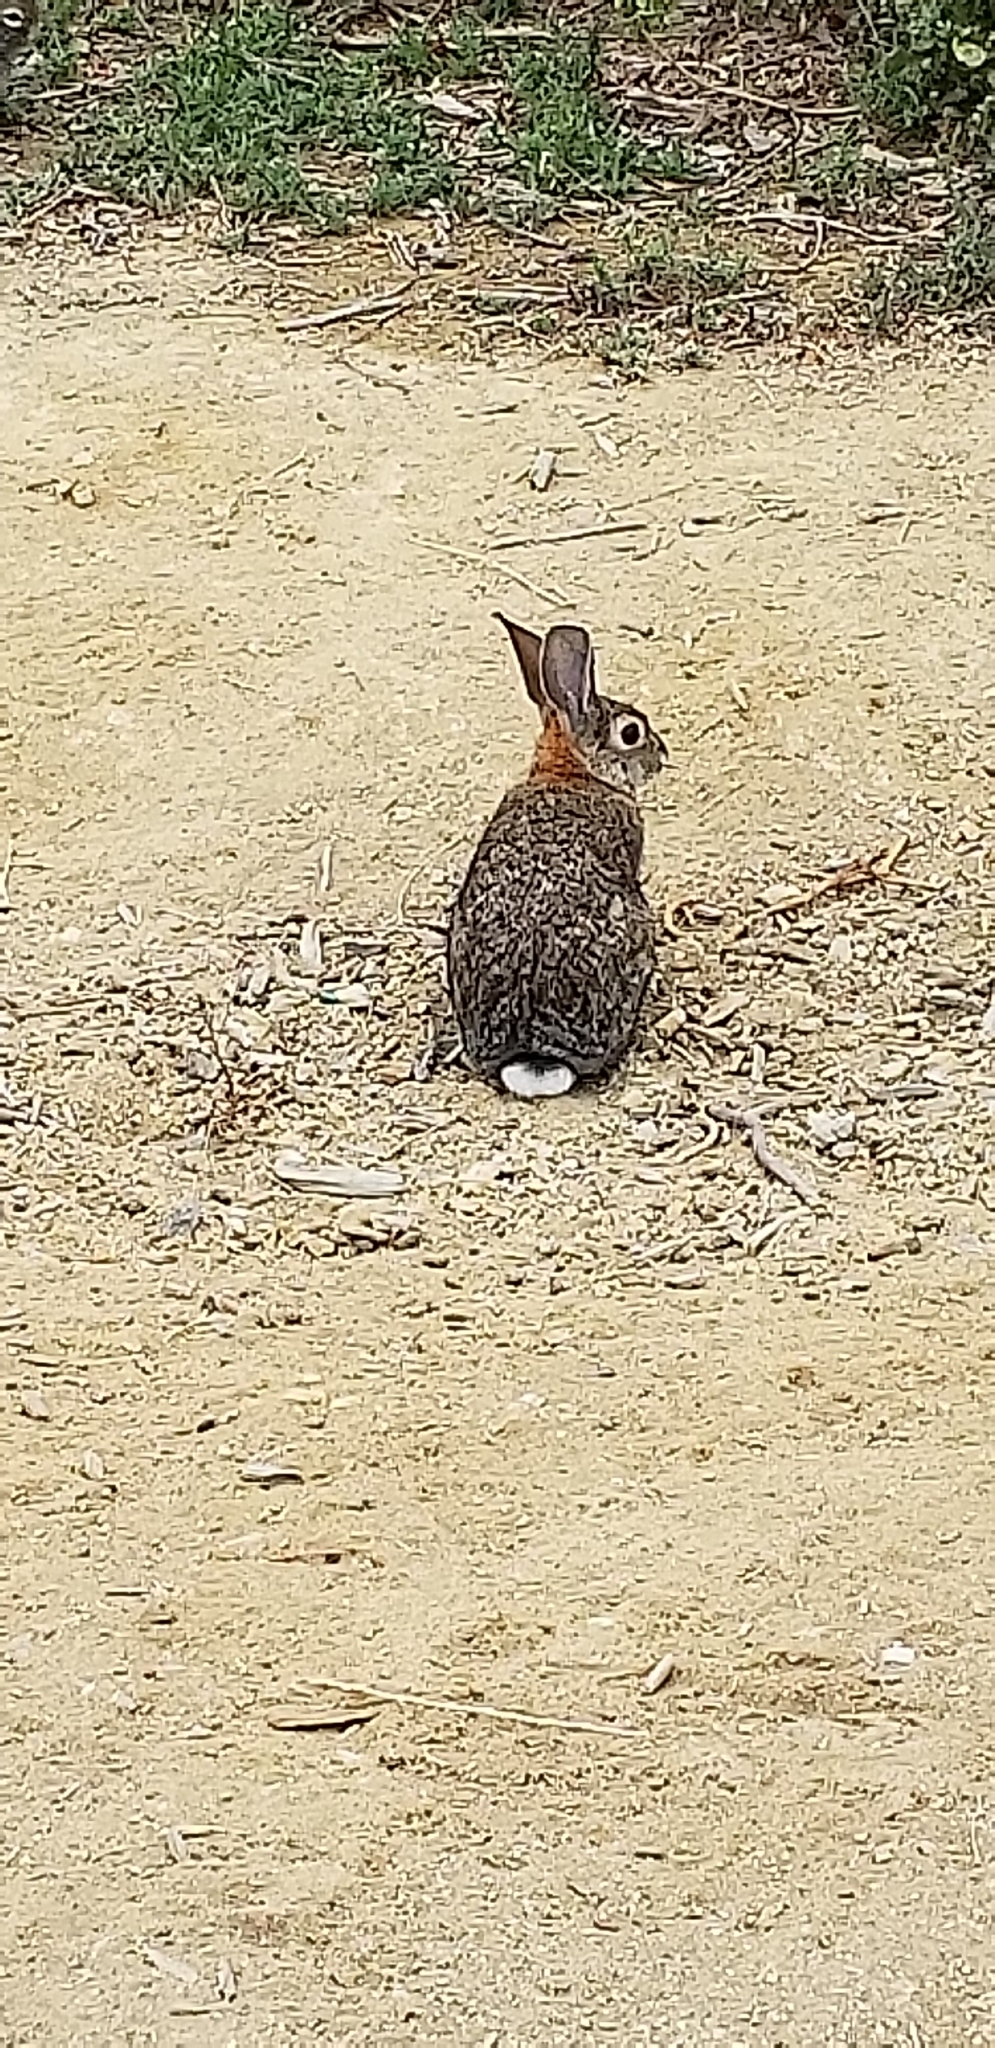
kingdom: Animalia
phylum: Chordata
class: Mammalia
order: Lagomorpha
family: Leporidae
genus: Sylvilagus
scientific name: Sylvilagus audubonii
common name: Desert cottontail
